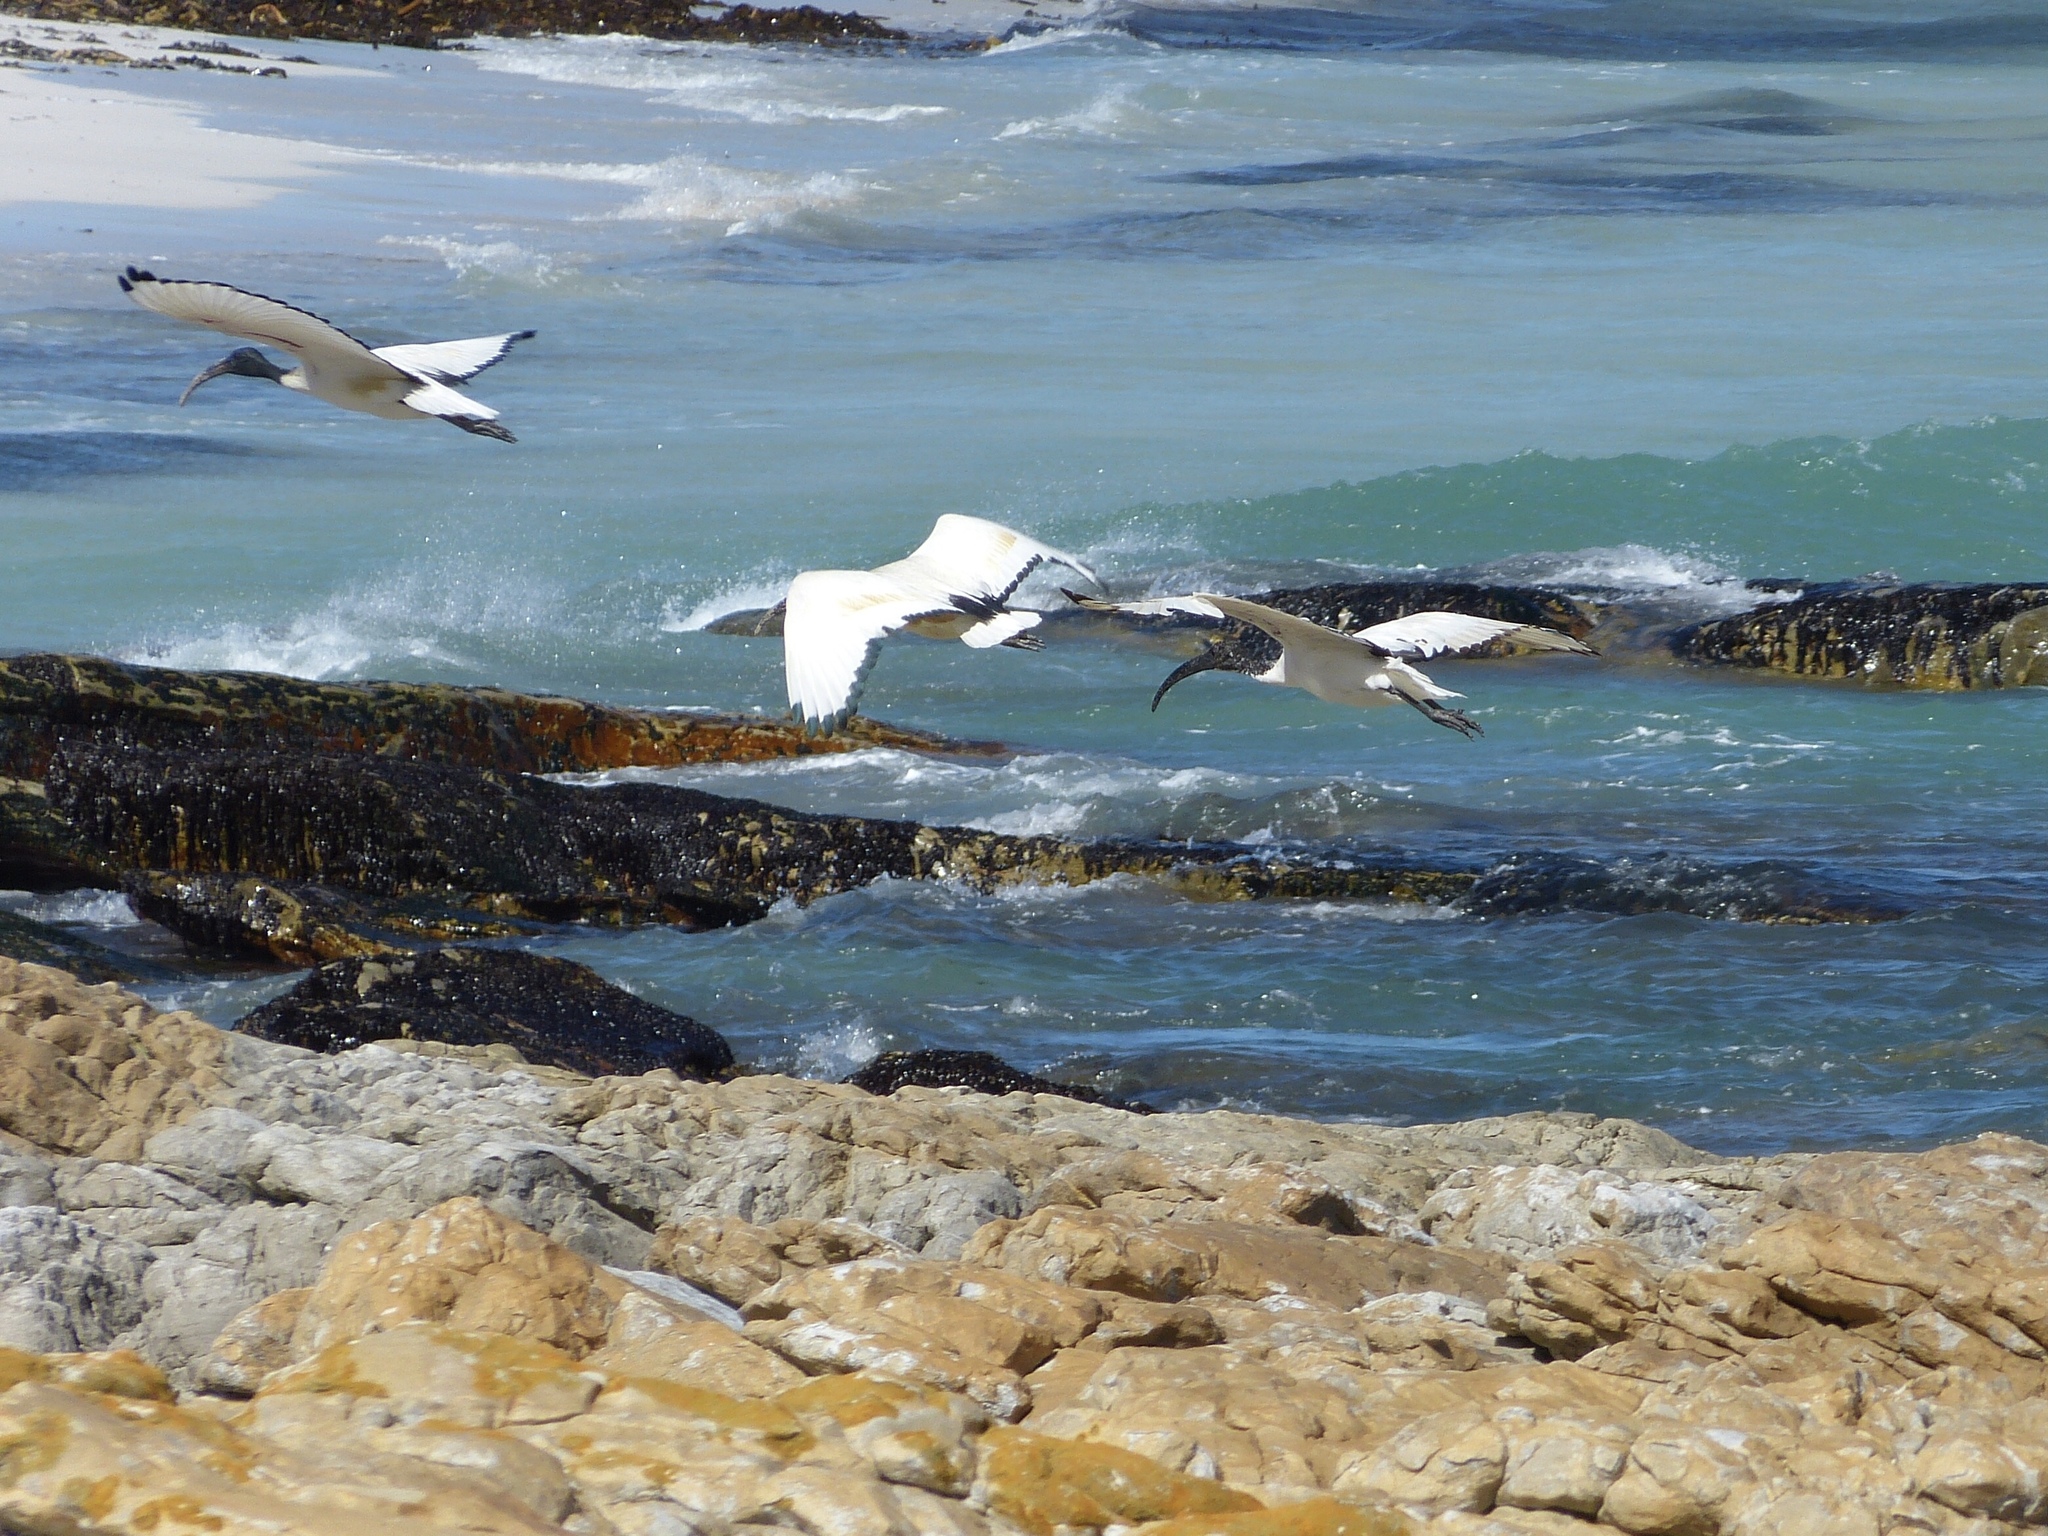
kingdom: Animalia
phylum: Chordata
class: Aves
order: Pelecaniformes
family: Threskiornithidae
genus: Threskiornis
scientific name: Threskiornis aethiopicus
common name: Sacred ibis
